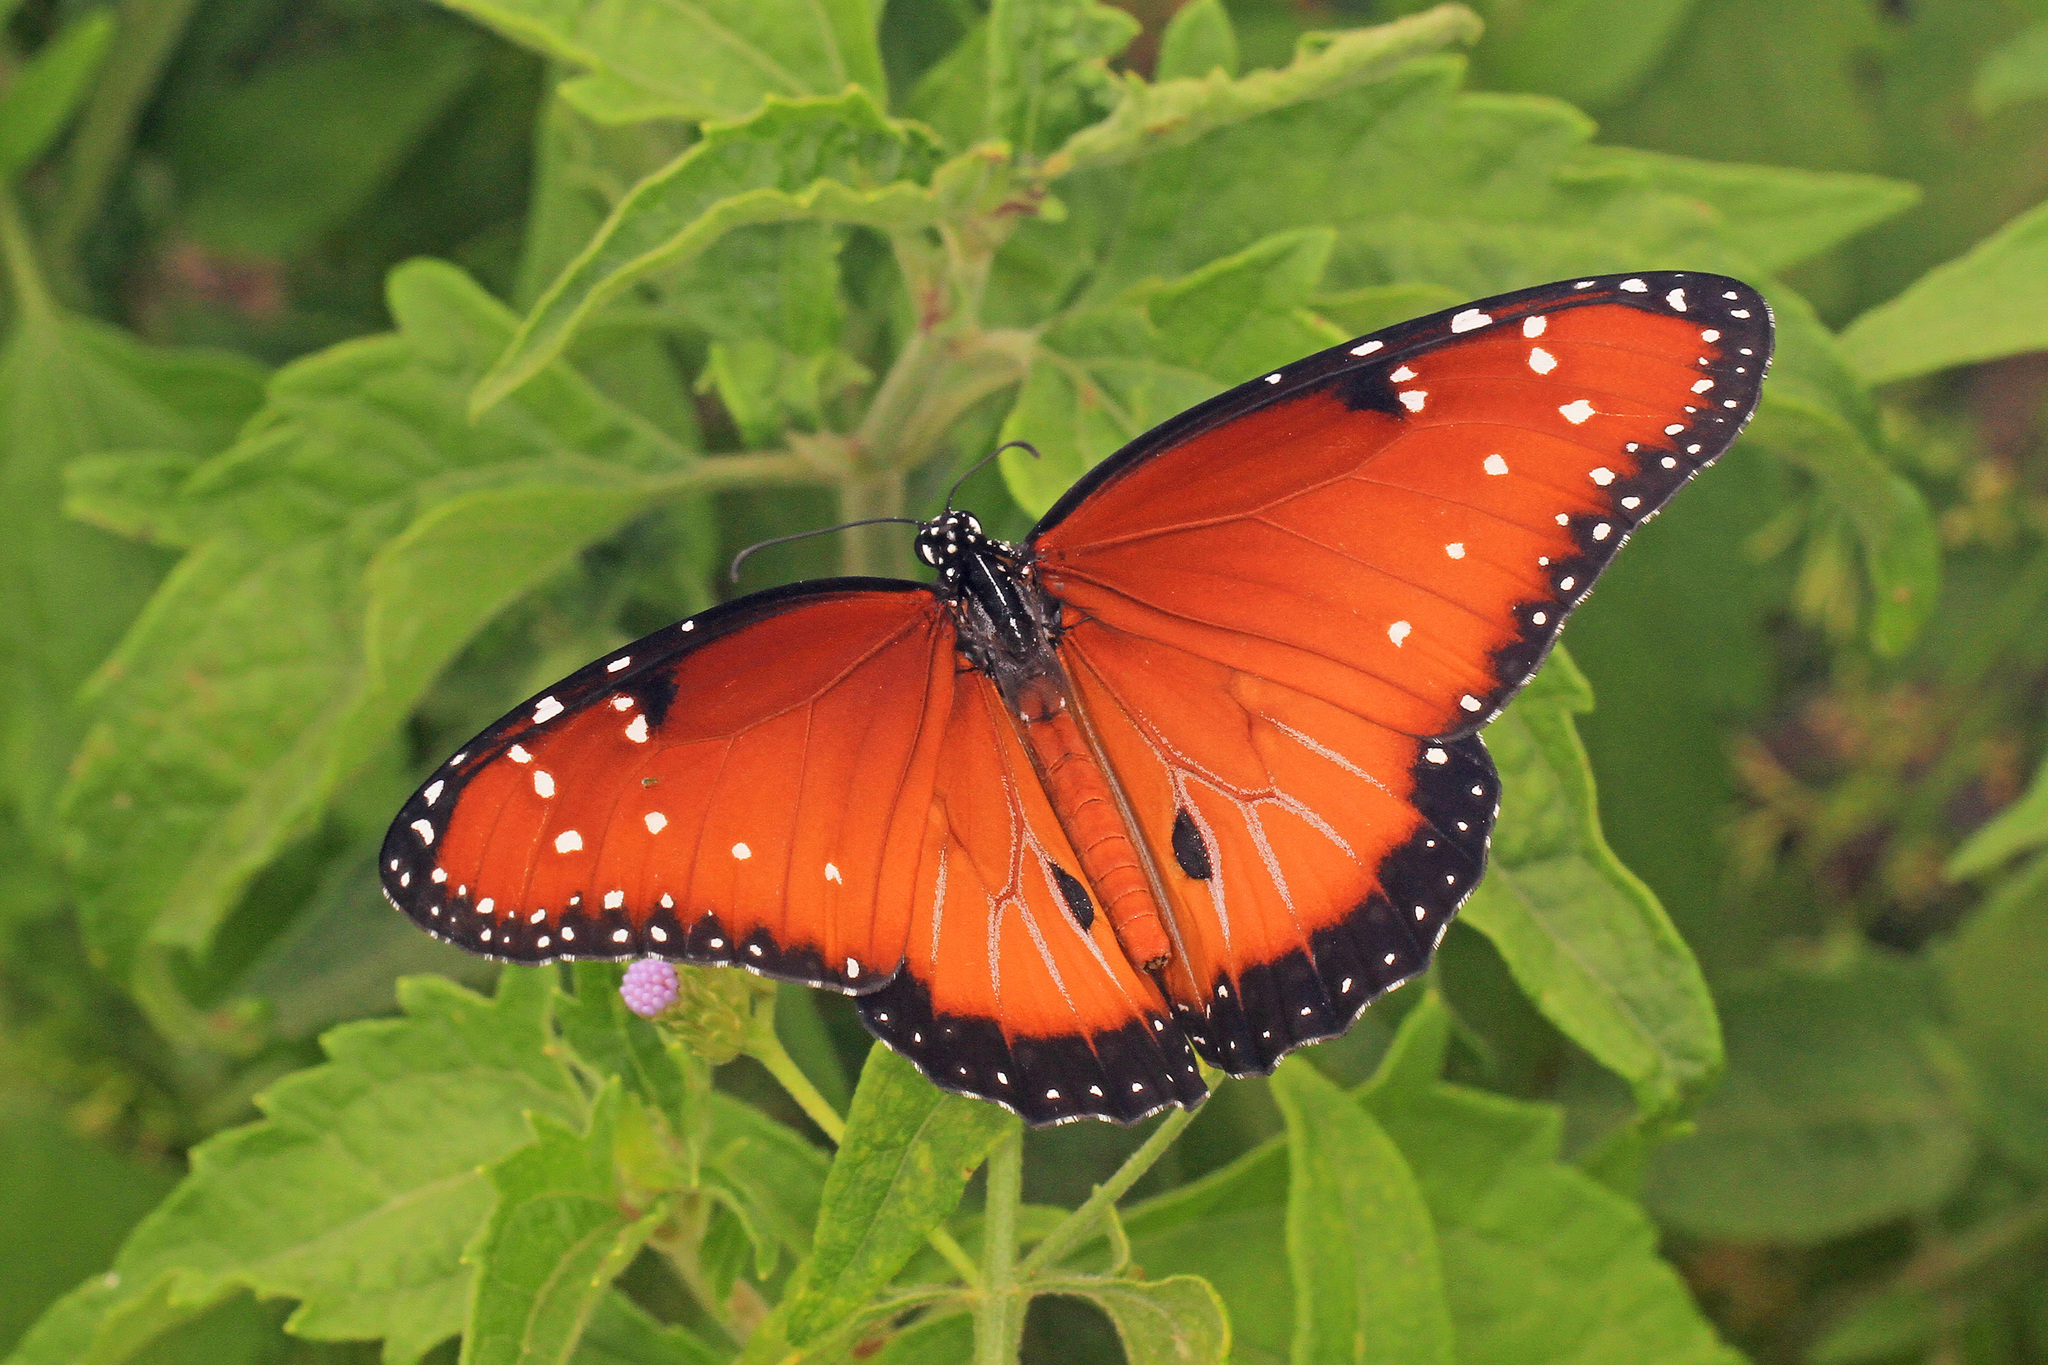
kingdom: Animalia
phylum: Arthropoda
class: Insecta
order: Lepidoptera
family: Nymphalidae
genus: Danaus
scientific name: Danaus gilippus
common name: Queen
